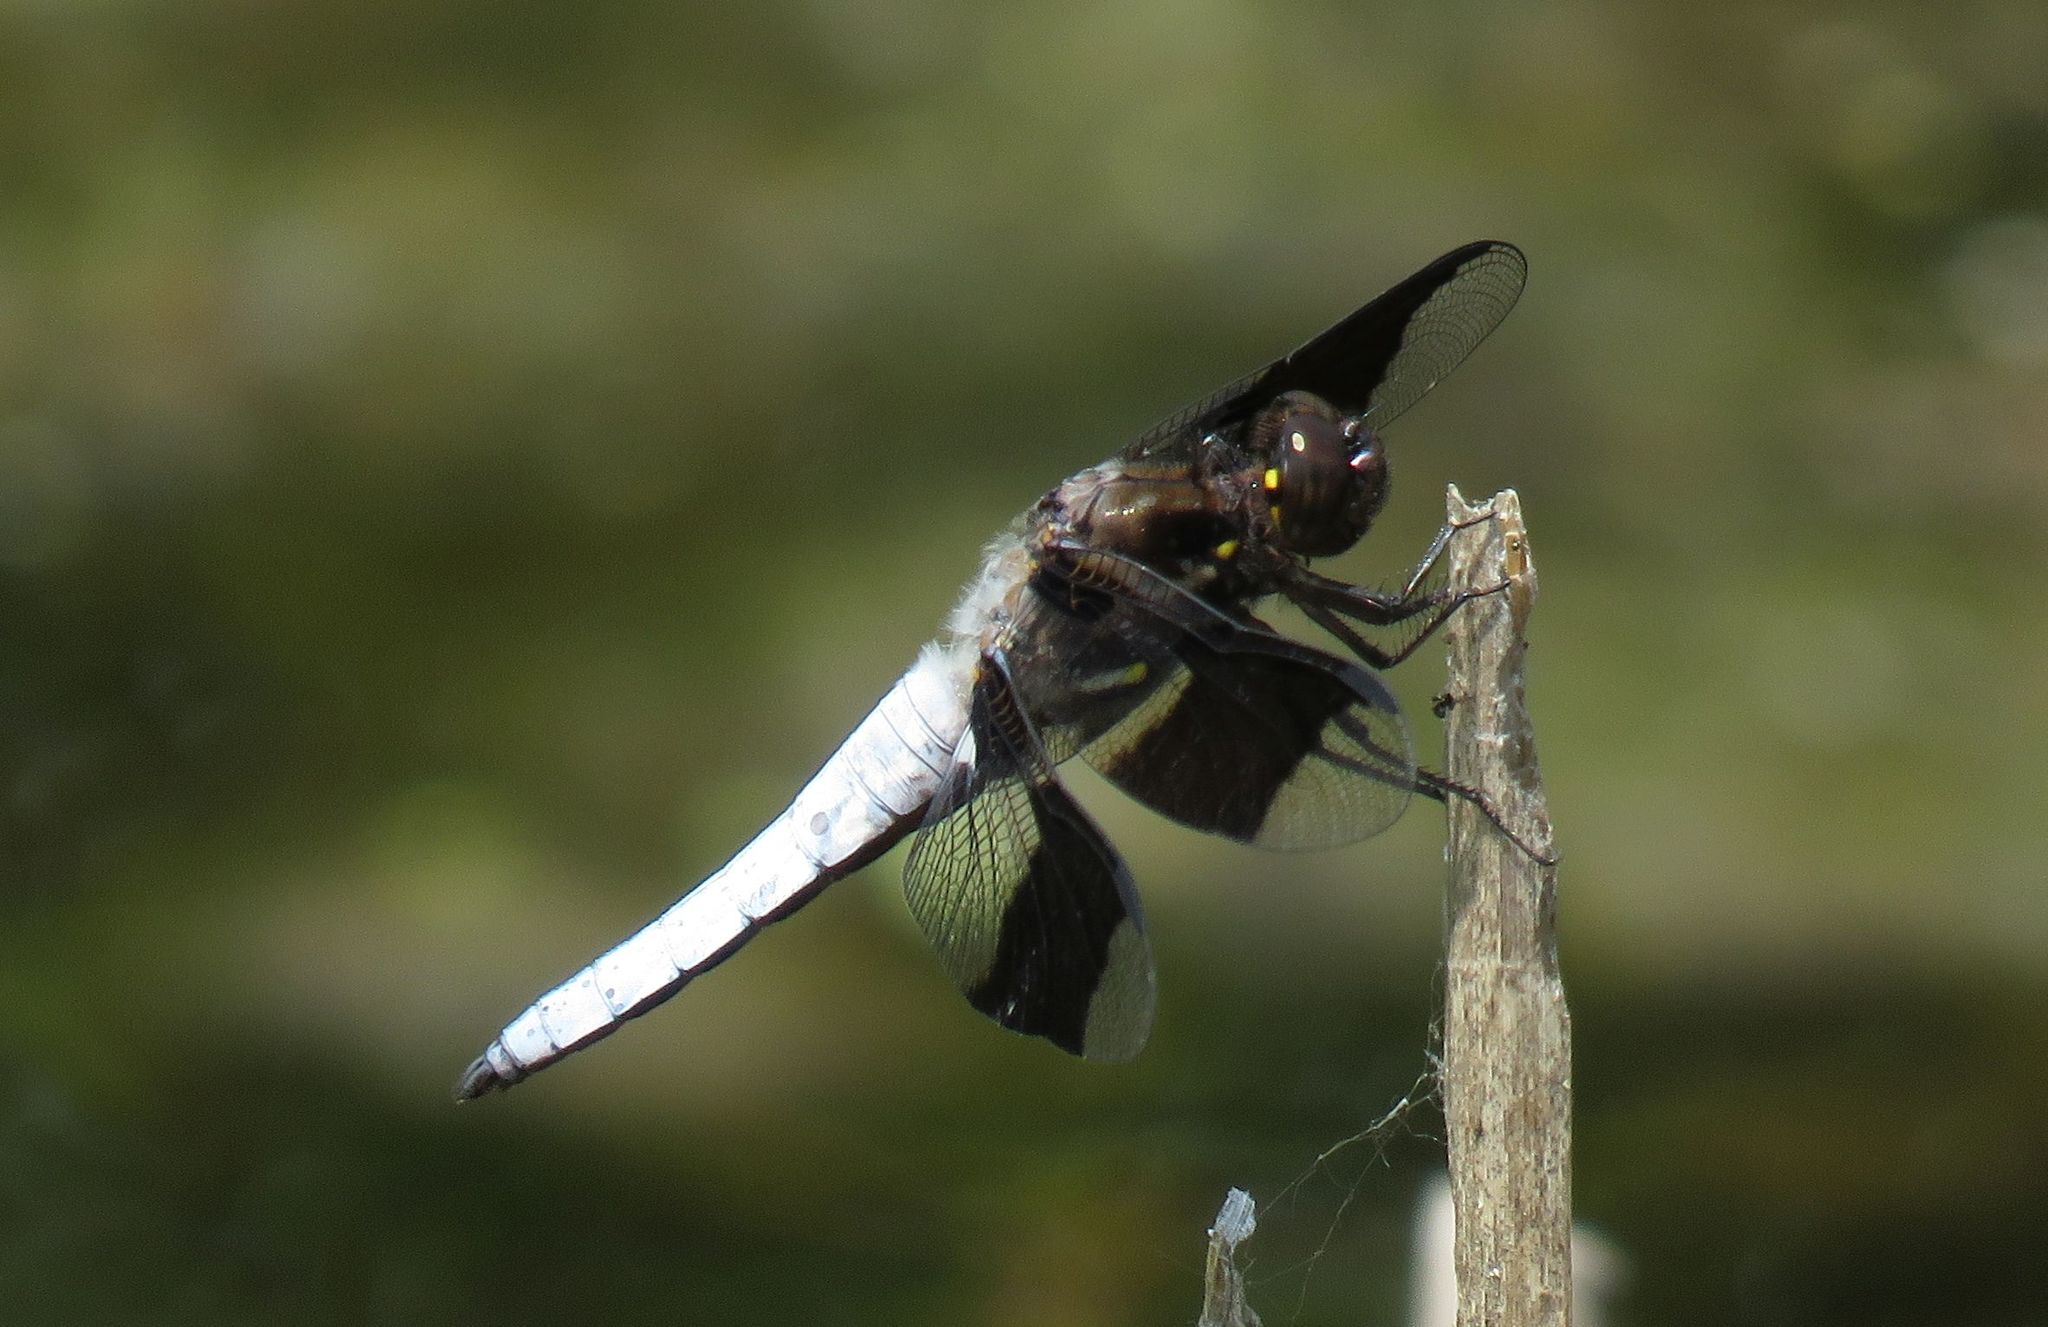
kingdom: Animalia
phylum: Arthropoda
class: Insecta
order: Odonata
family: Libellulidae
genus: Plathemis
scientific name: Plathemis lydia
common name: Common whitetail
